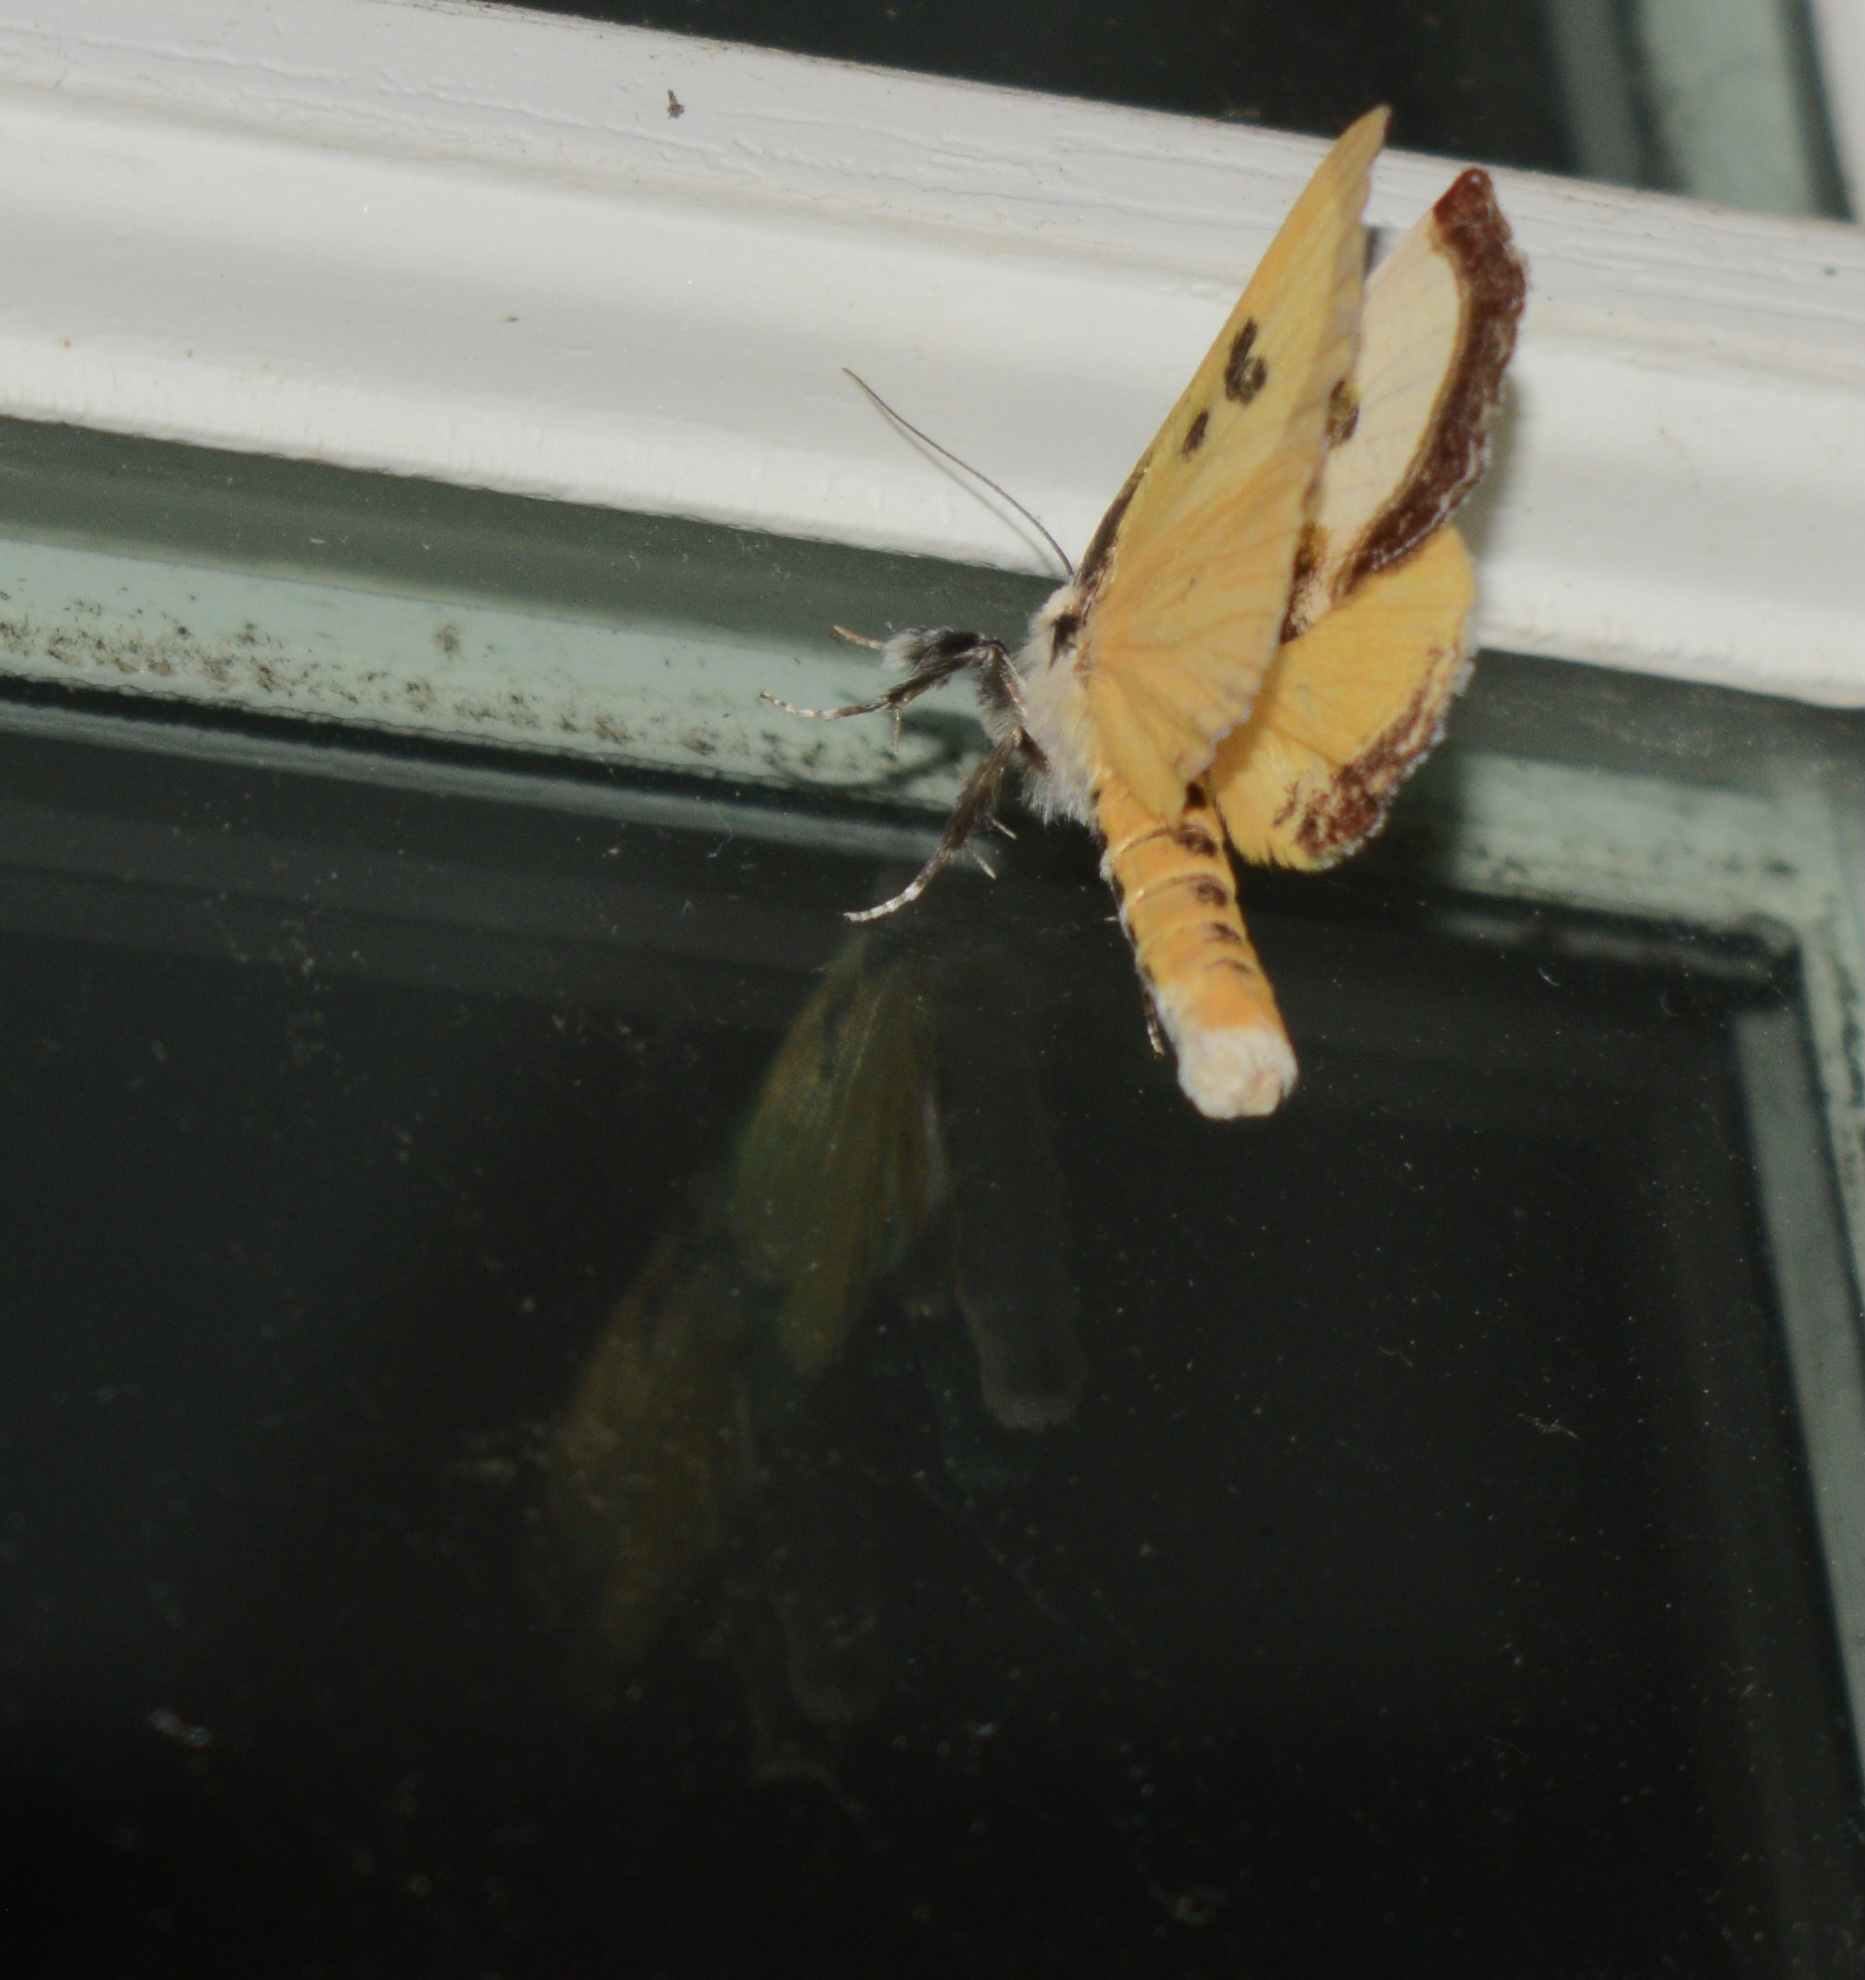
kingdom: Animalia
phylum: Arthropoda
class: Insecta
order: Lepidoptera
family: Noctuidae
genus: Eudryas
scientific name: Eudryas grata
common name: Beautiful wood-nymph
